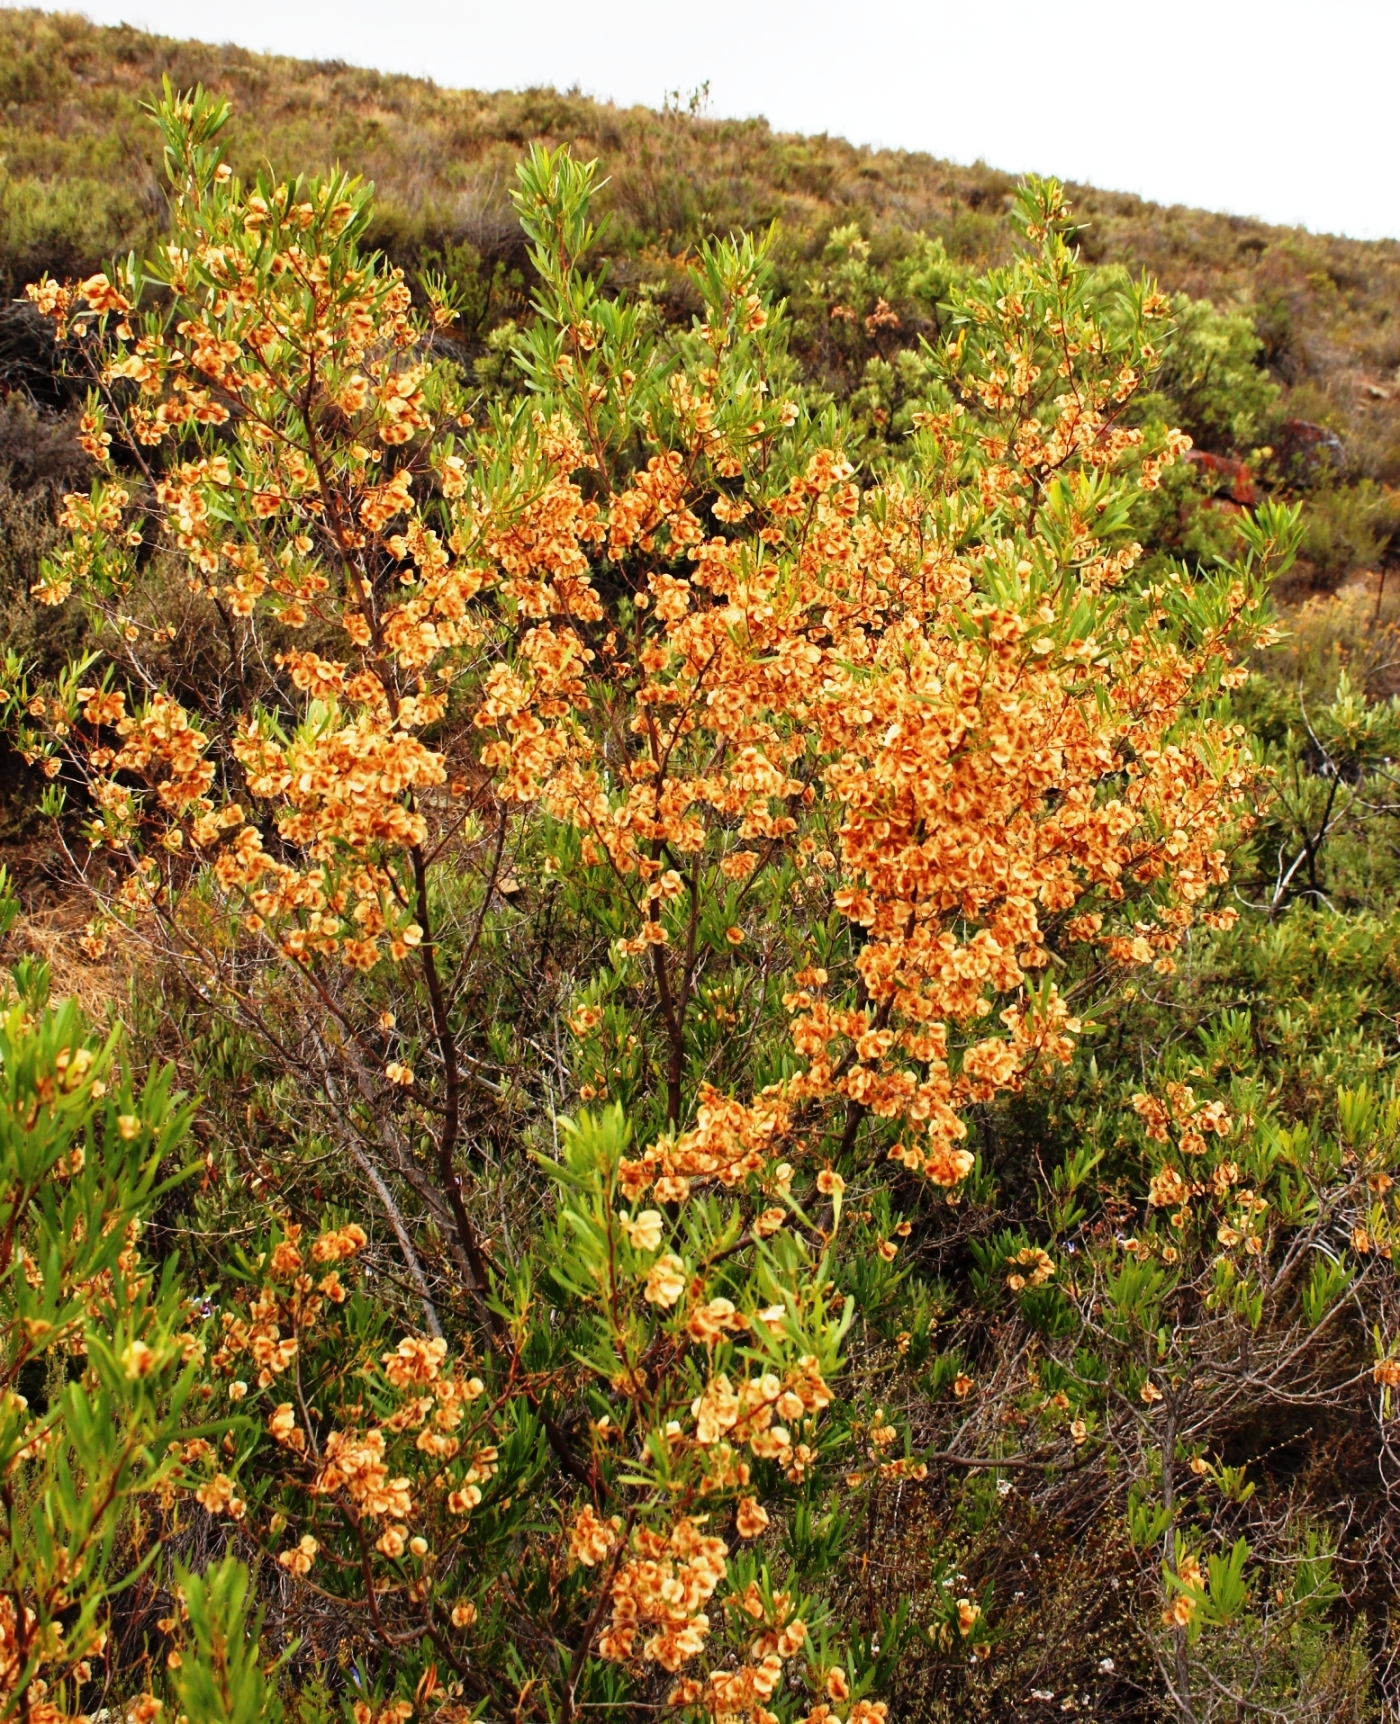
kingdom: Plantae
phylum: Tracheophyta
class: Magnoliopsida
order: Sapindales
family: Sapindaceae
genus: Dodonaea
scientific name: Dodonaea viscosa
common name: Hopbush
